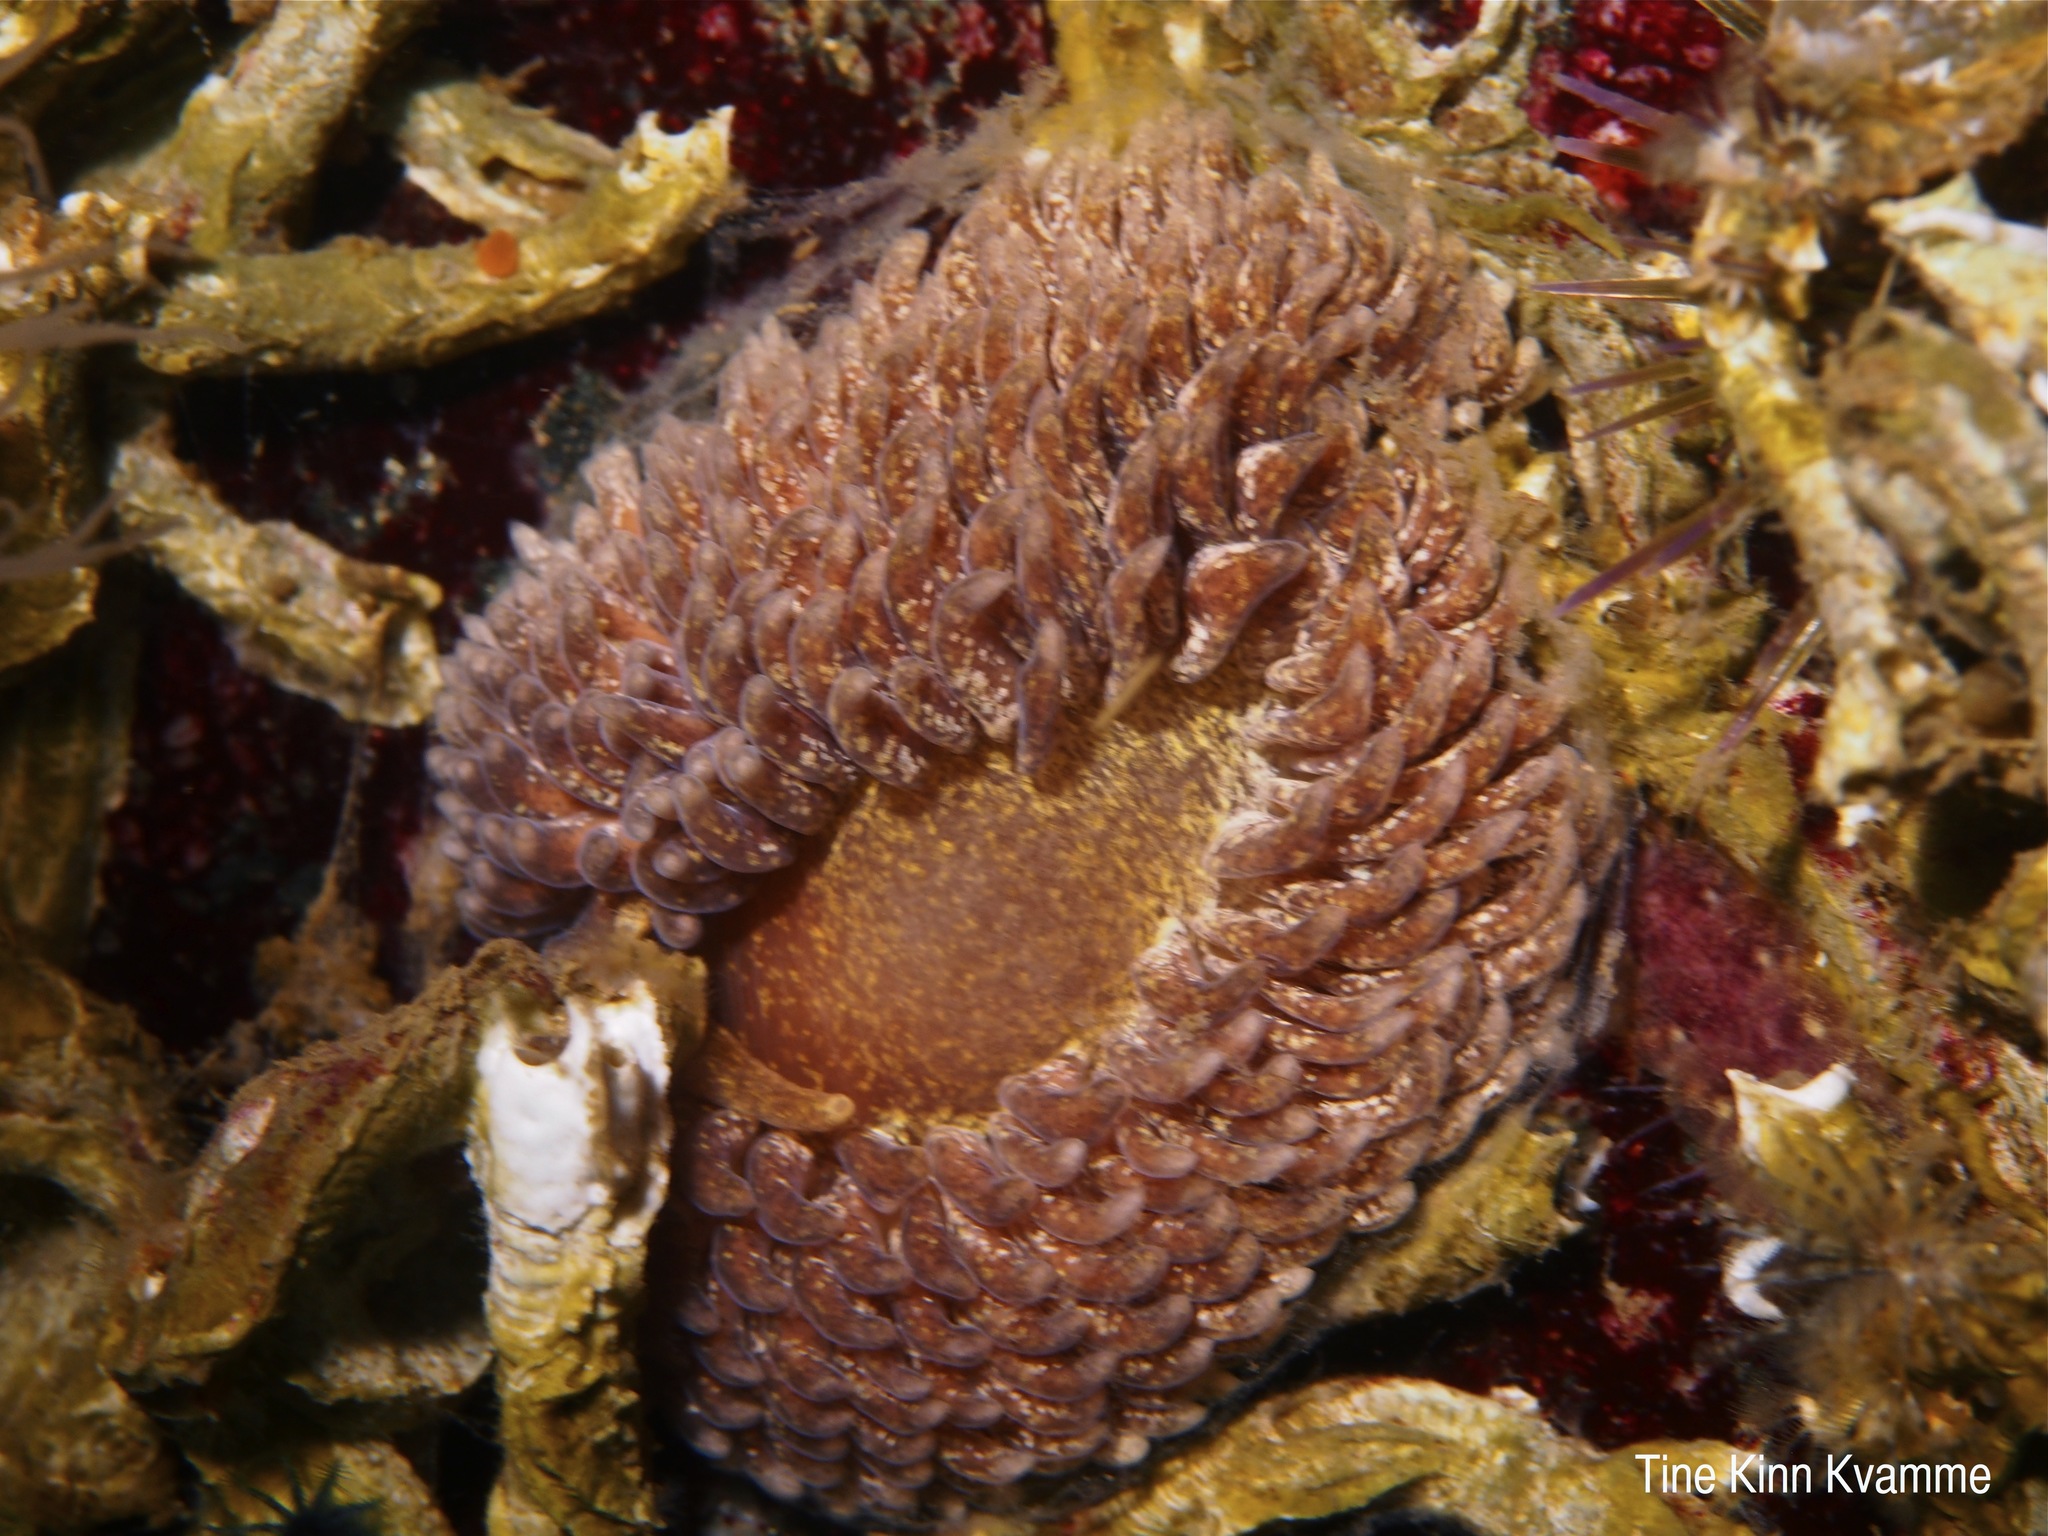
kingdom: Animalia
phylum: Mollusca
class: Gastropoda
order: Nudibranchia
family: Aeolidiidae
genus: Aeolidia
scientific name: Aeolidia papillosa
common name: Common grey sea slug
